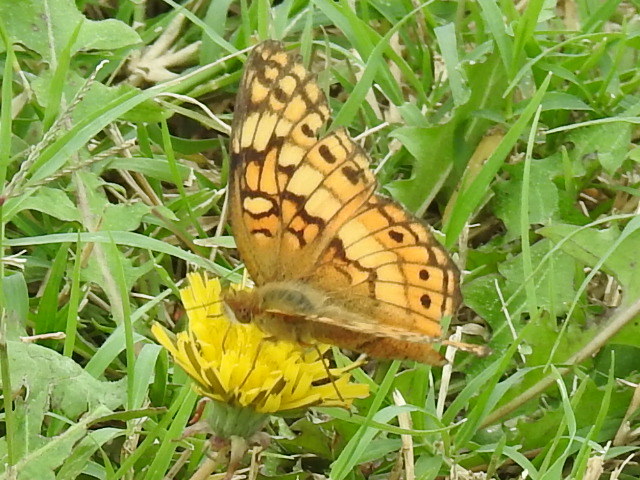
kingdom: Animalia
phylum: Arthropoda
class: Insecta
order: Lepidoptera
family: Nymphalidae
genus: Euptoieta
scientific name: Euptoieta claudia
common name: Variegated fritillary
